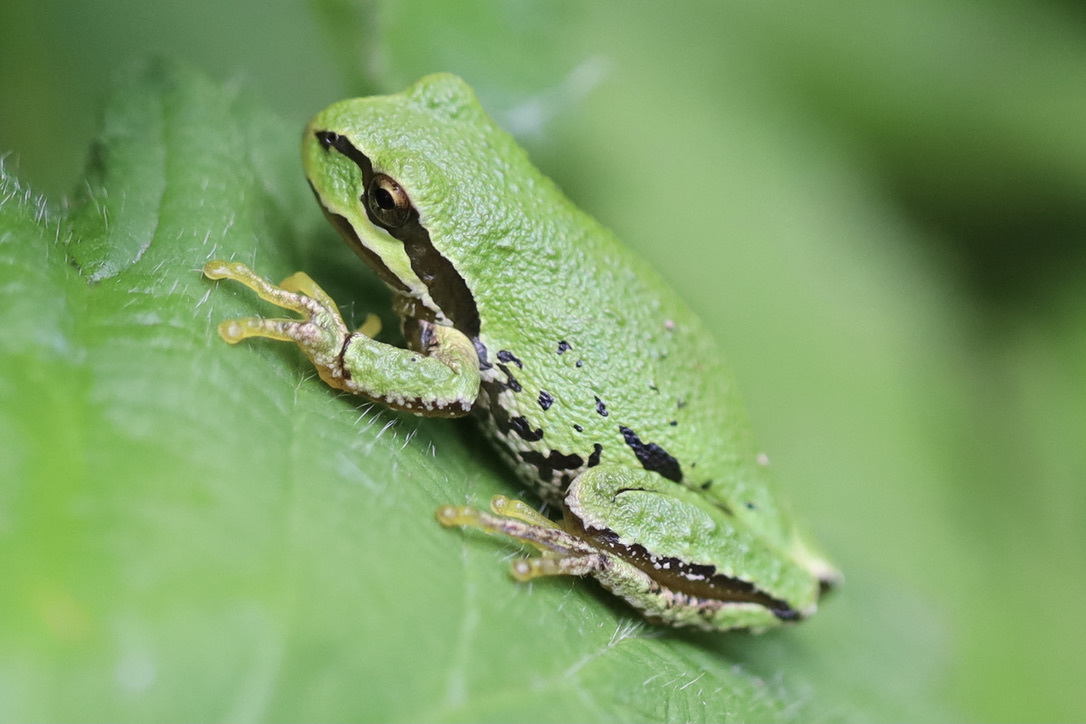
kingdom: Animalia
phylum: Chordata
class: Amphibia
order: Anura
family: Hylidae
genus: Pseudacris
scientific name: Pseudacris regilla
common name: Pacific chorus frog
